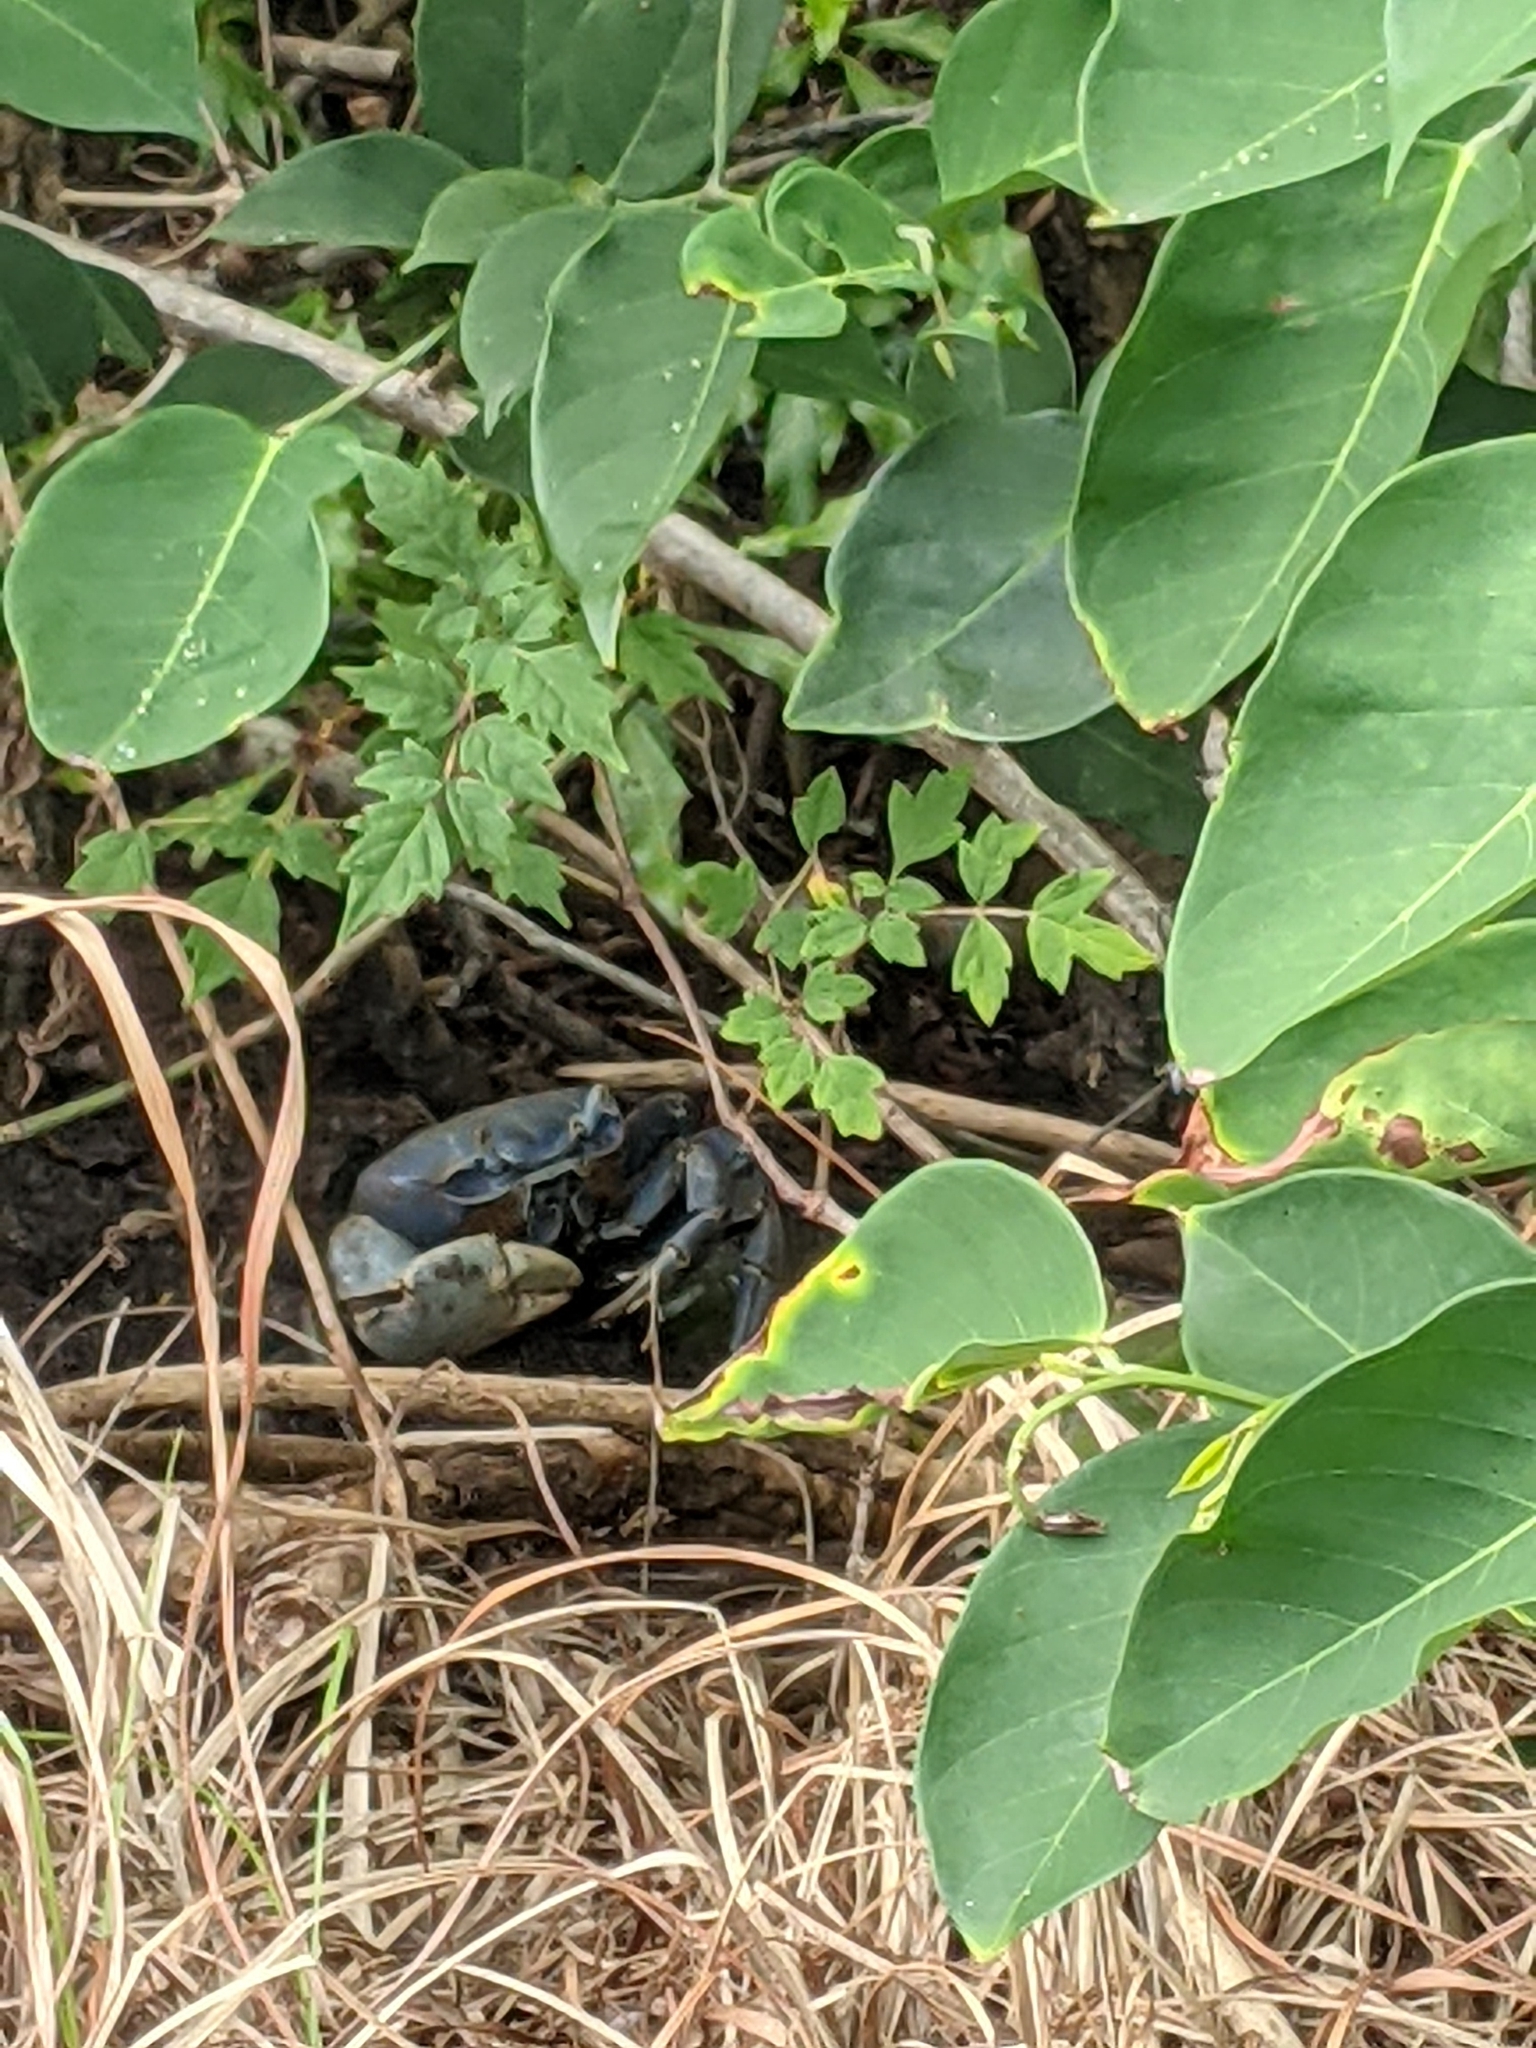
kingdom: Animalia
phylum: Arthropoda
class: Malacostraca
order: Decapoda
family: Gecarcinidae
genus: Cardisoma
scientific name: Cardisoma guanhumi
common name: Great land crab
